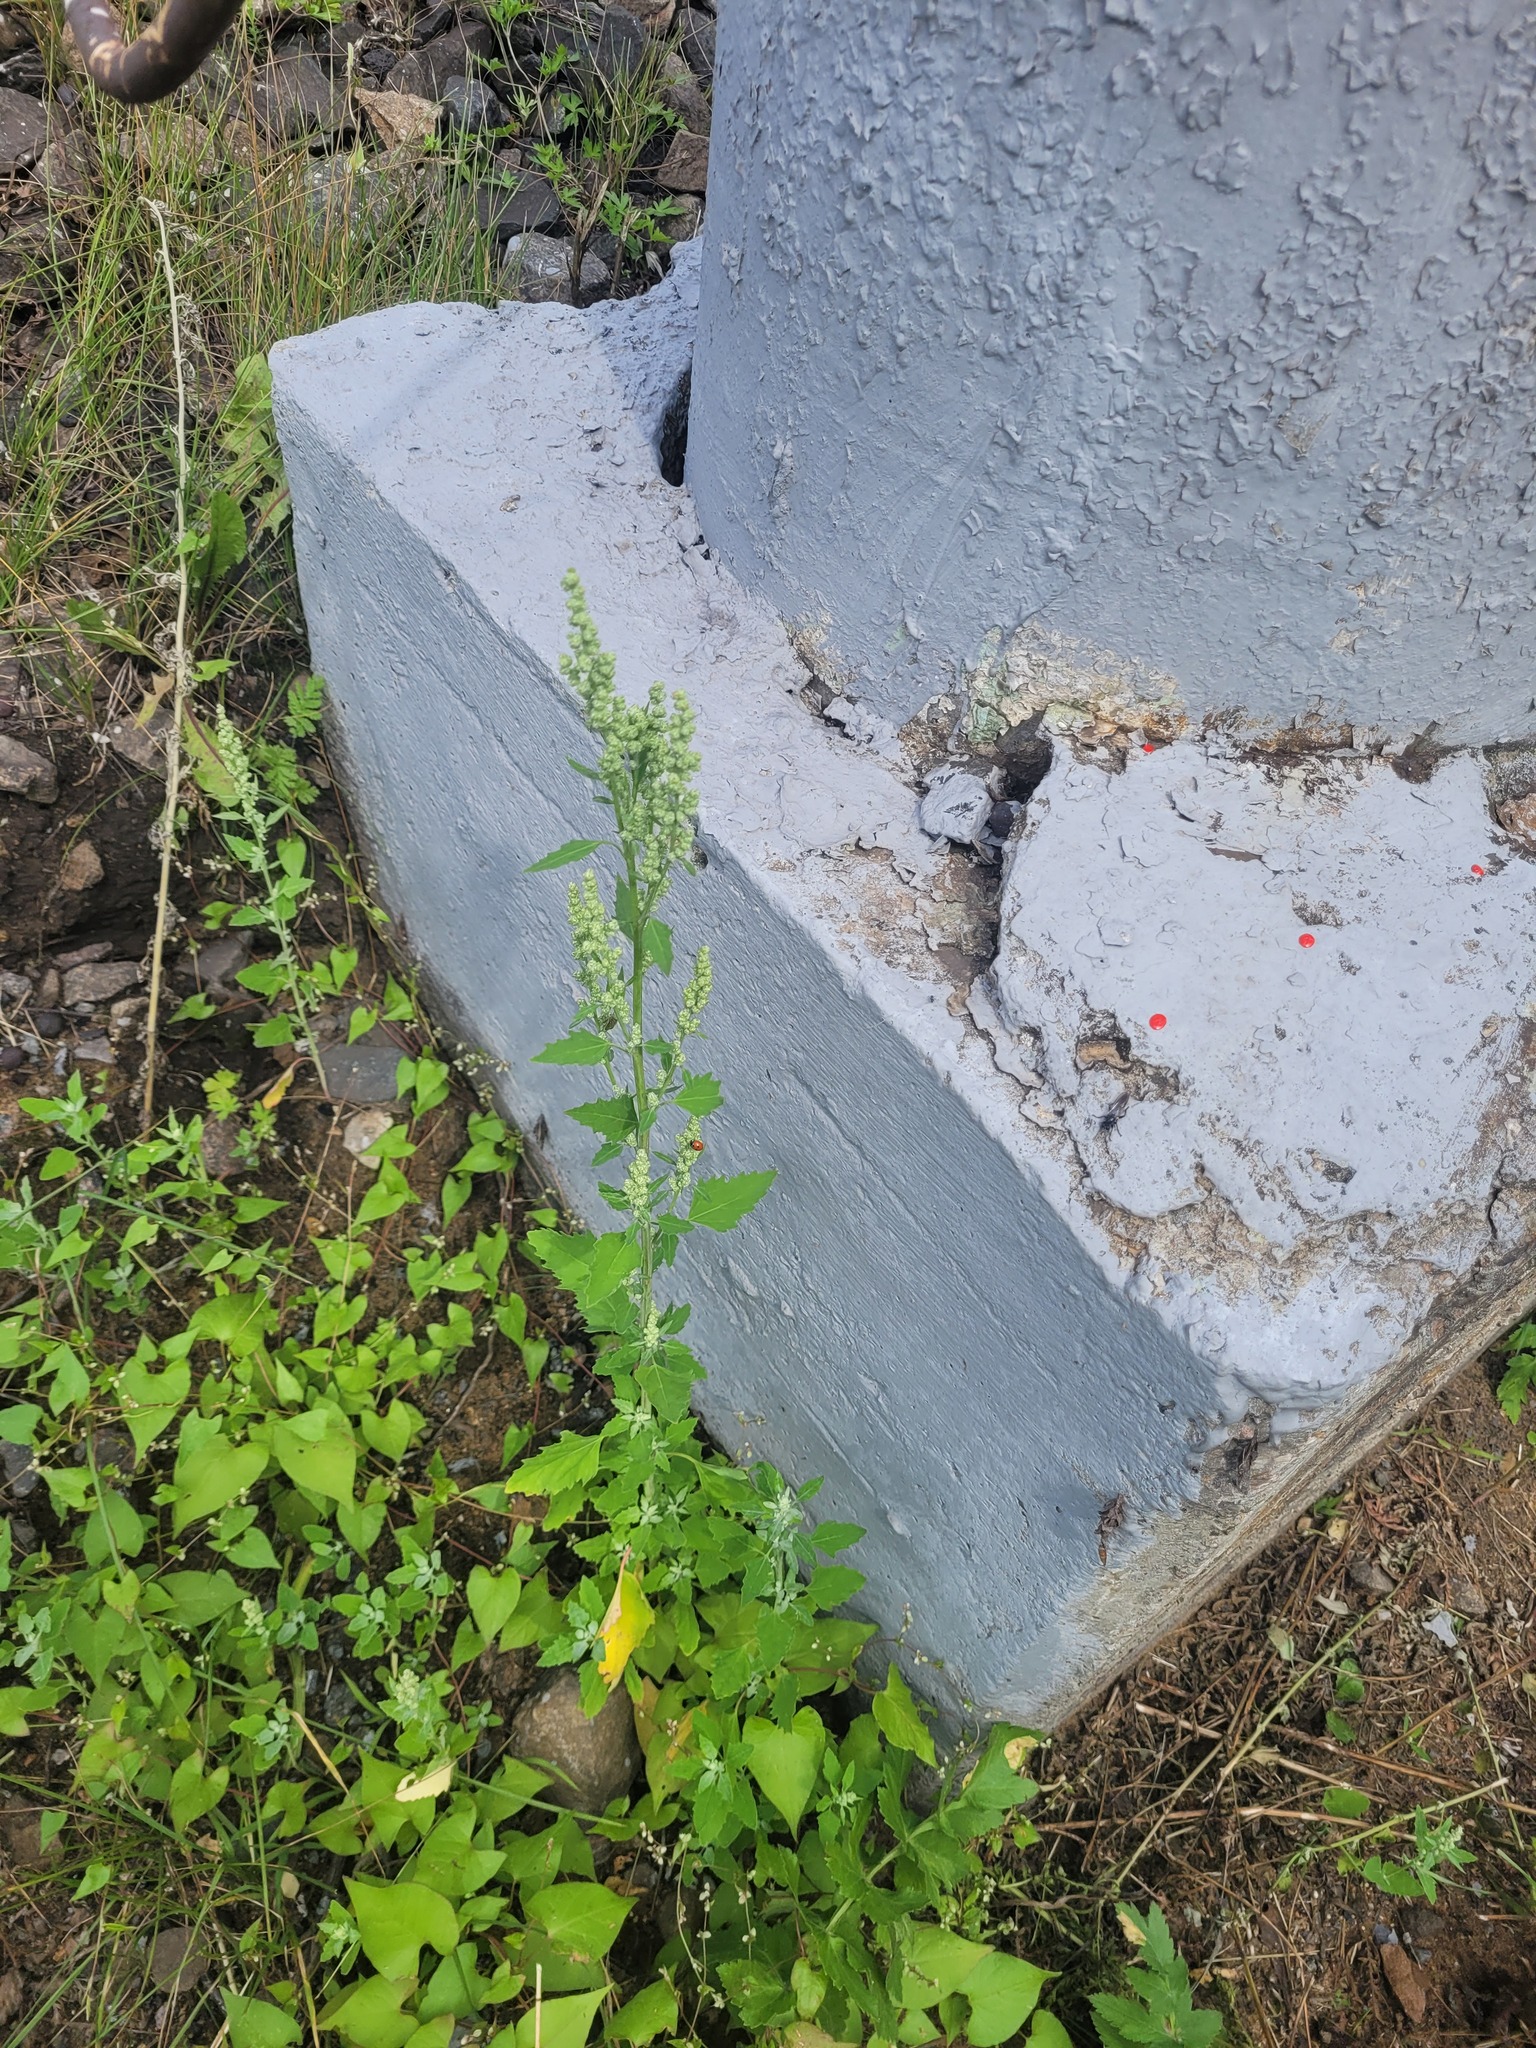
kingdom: Plantae
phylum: Tracheophyta
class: Magnoliopsida
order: Caryophyllales
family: Amaranthaceae
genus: Chenopodium
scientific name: Chenopodium album
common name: Fat-hen
